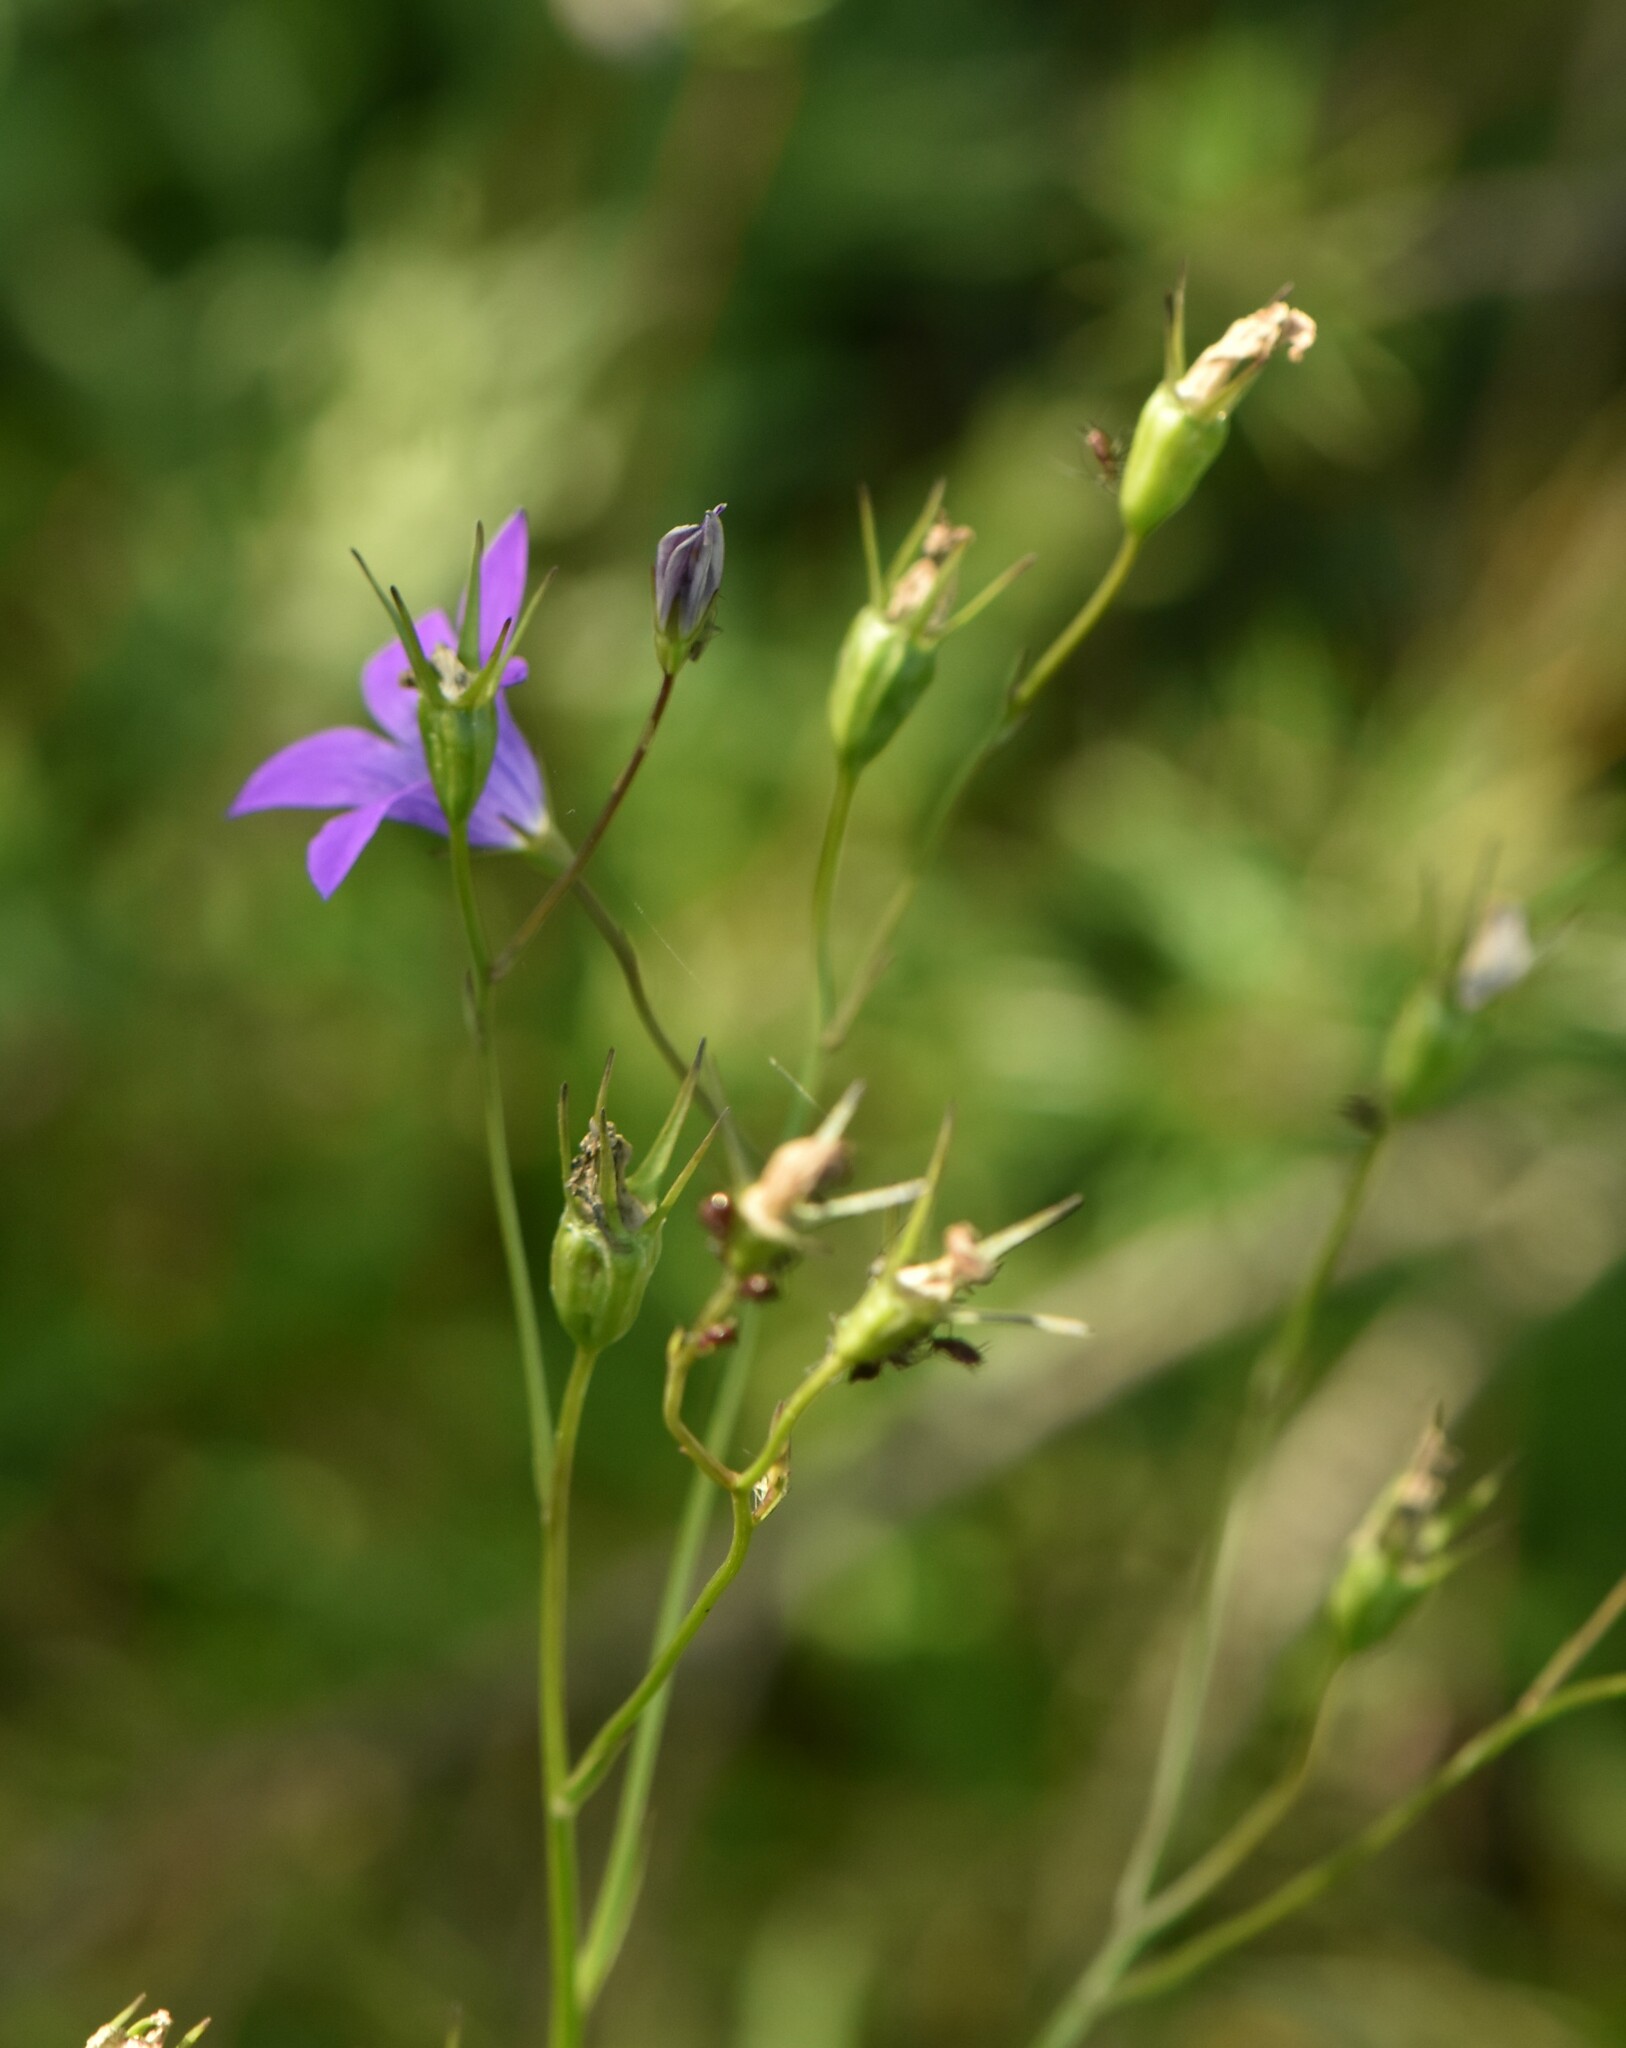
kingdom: Plantae
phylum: Tracheophyta
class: Magnoliopsida
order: Asterales
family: Campanulaceae
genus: Campanula
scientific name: Campanula patula
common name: Spreading bellflower
